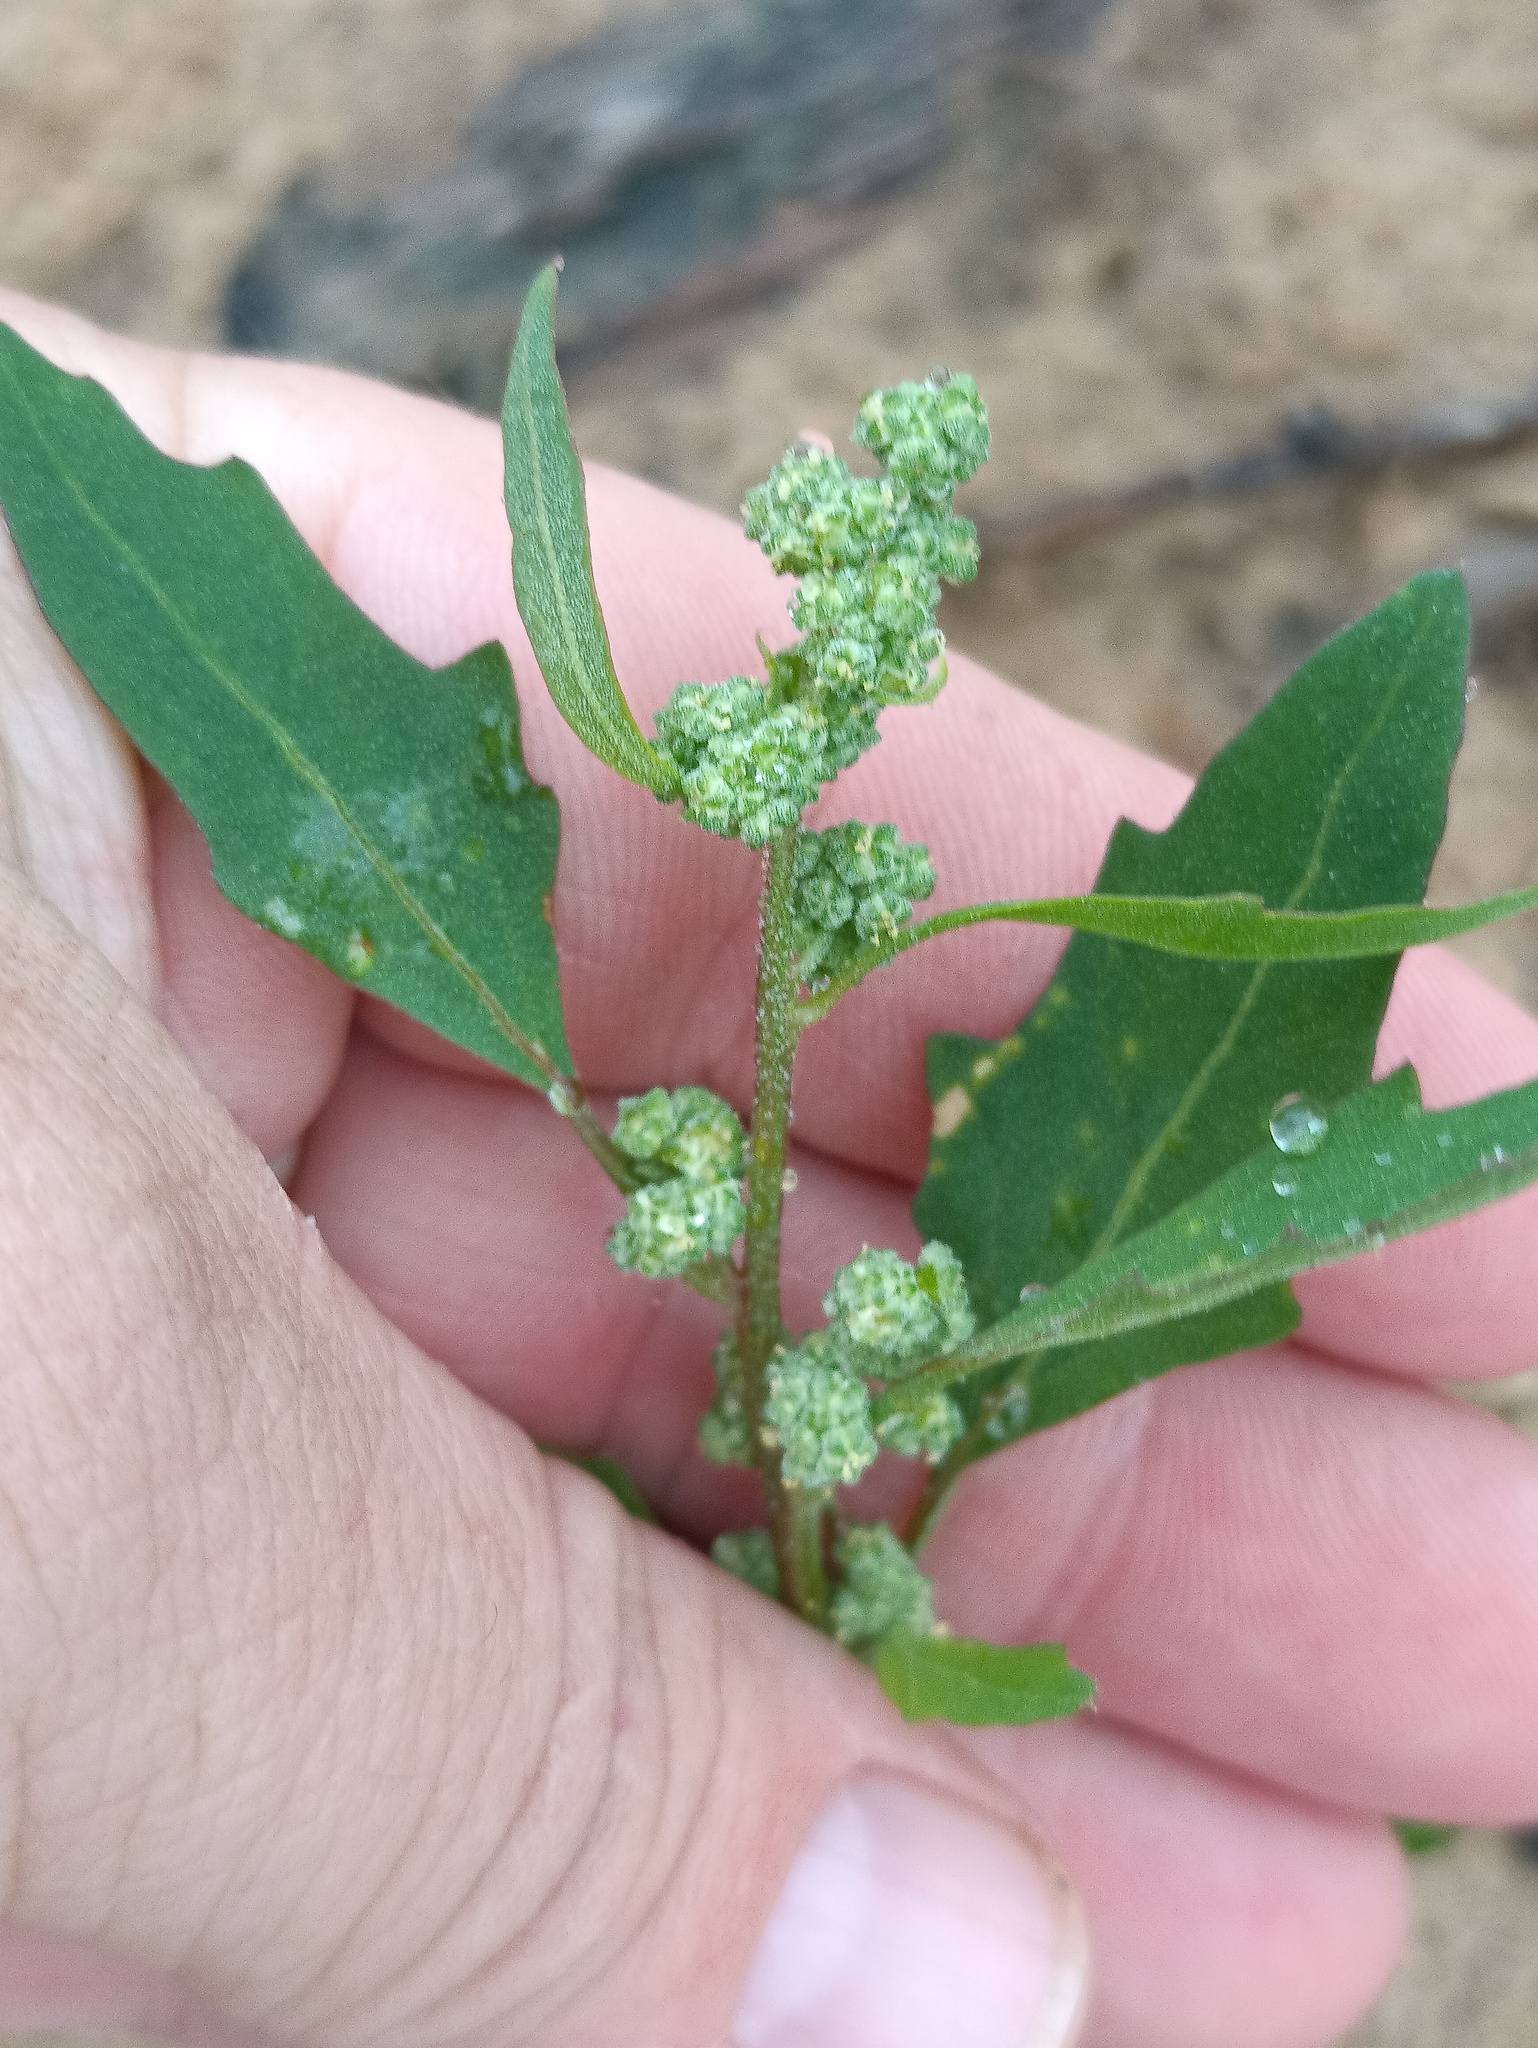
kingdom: Plantae
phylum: Tracheophyta
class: Magnoliopsida
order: Caryophyllales
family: Amaranthaceae
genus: Chenopodium
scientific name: Chenopodium album
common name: Fat-hen
